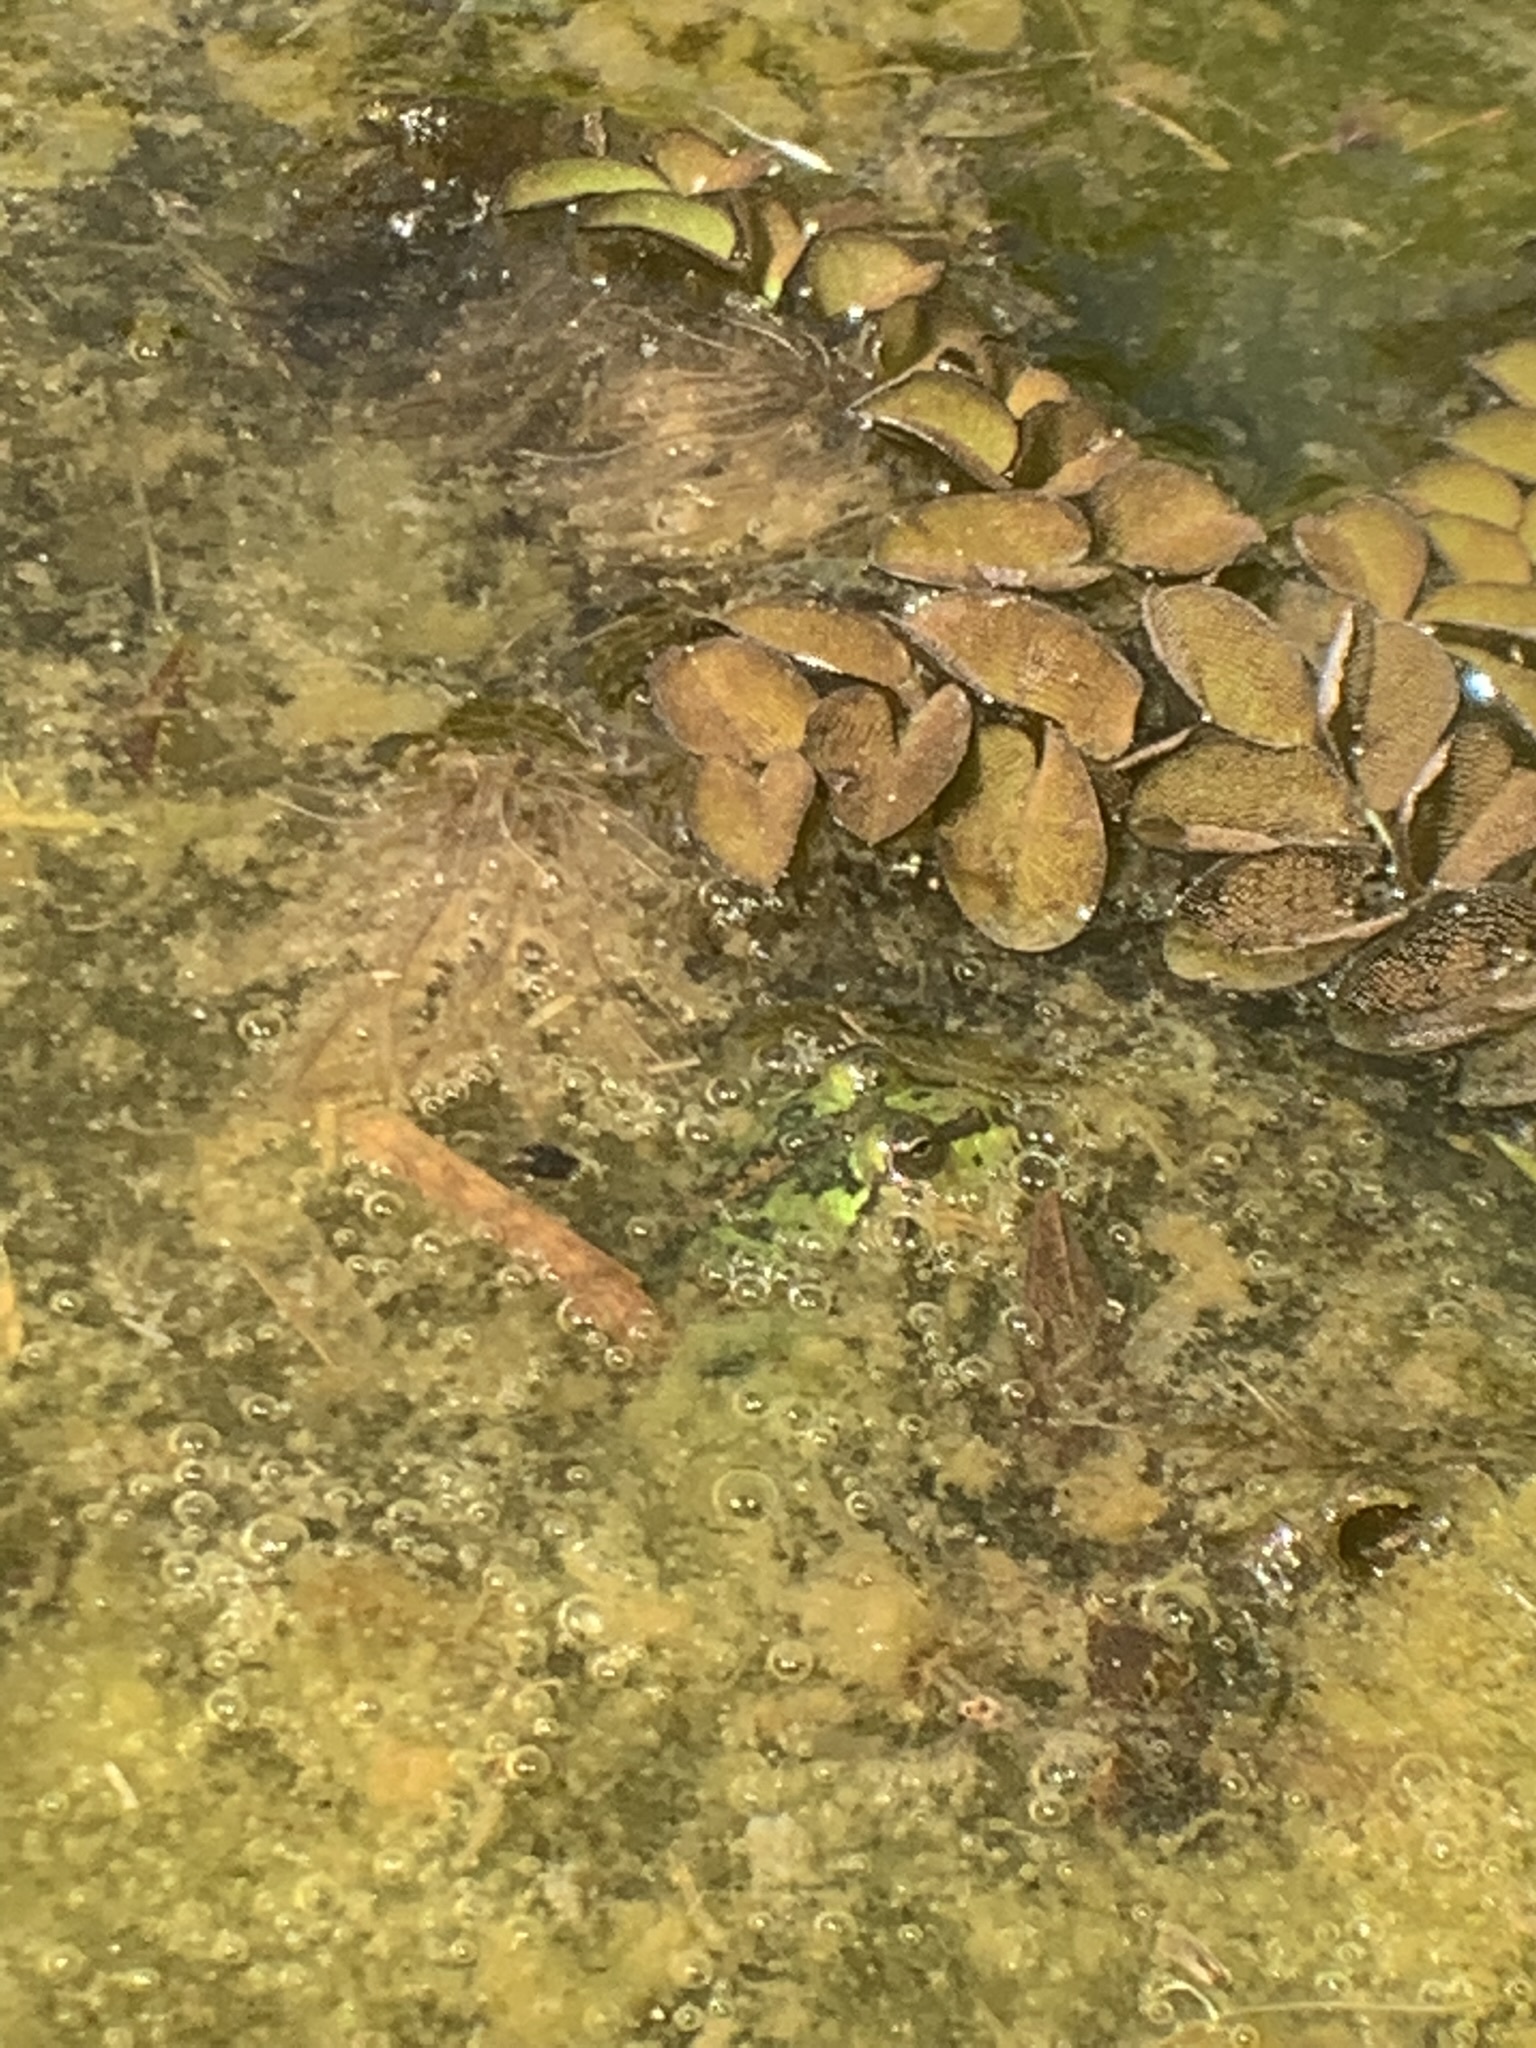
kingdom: Animalia
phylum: Chordata
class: Amphibia
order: Anura
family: Hylidae
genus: Pseudis
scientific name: Pseudis minuta
